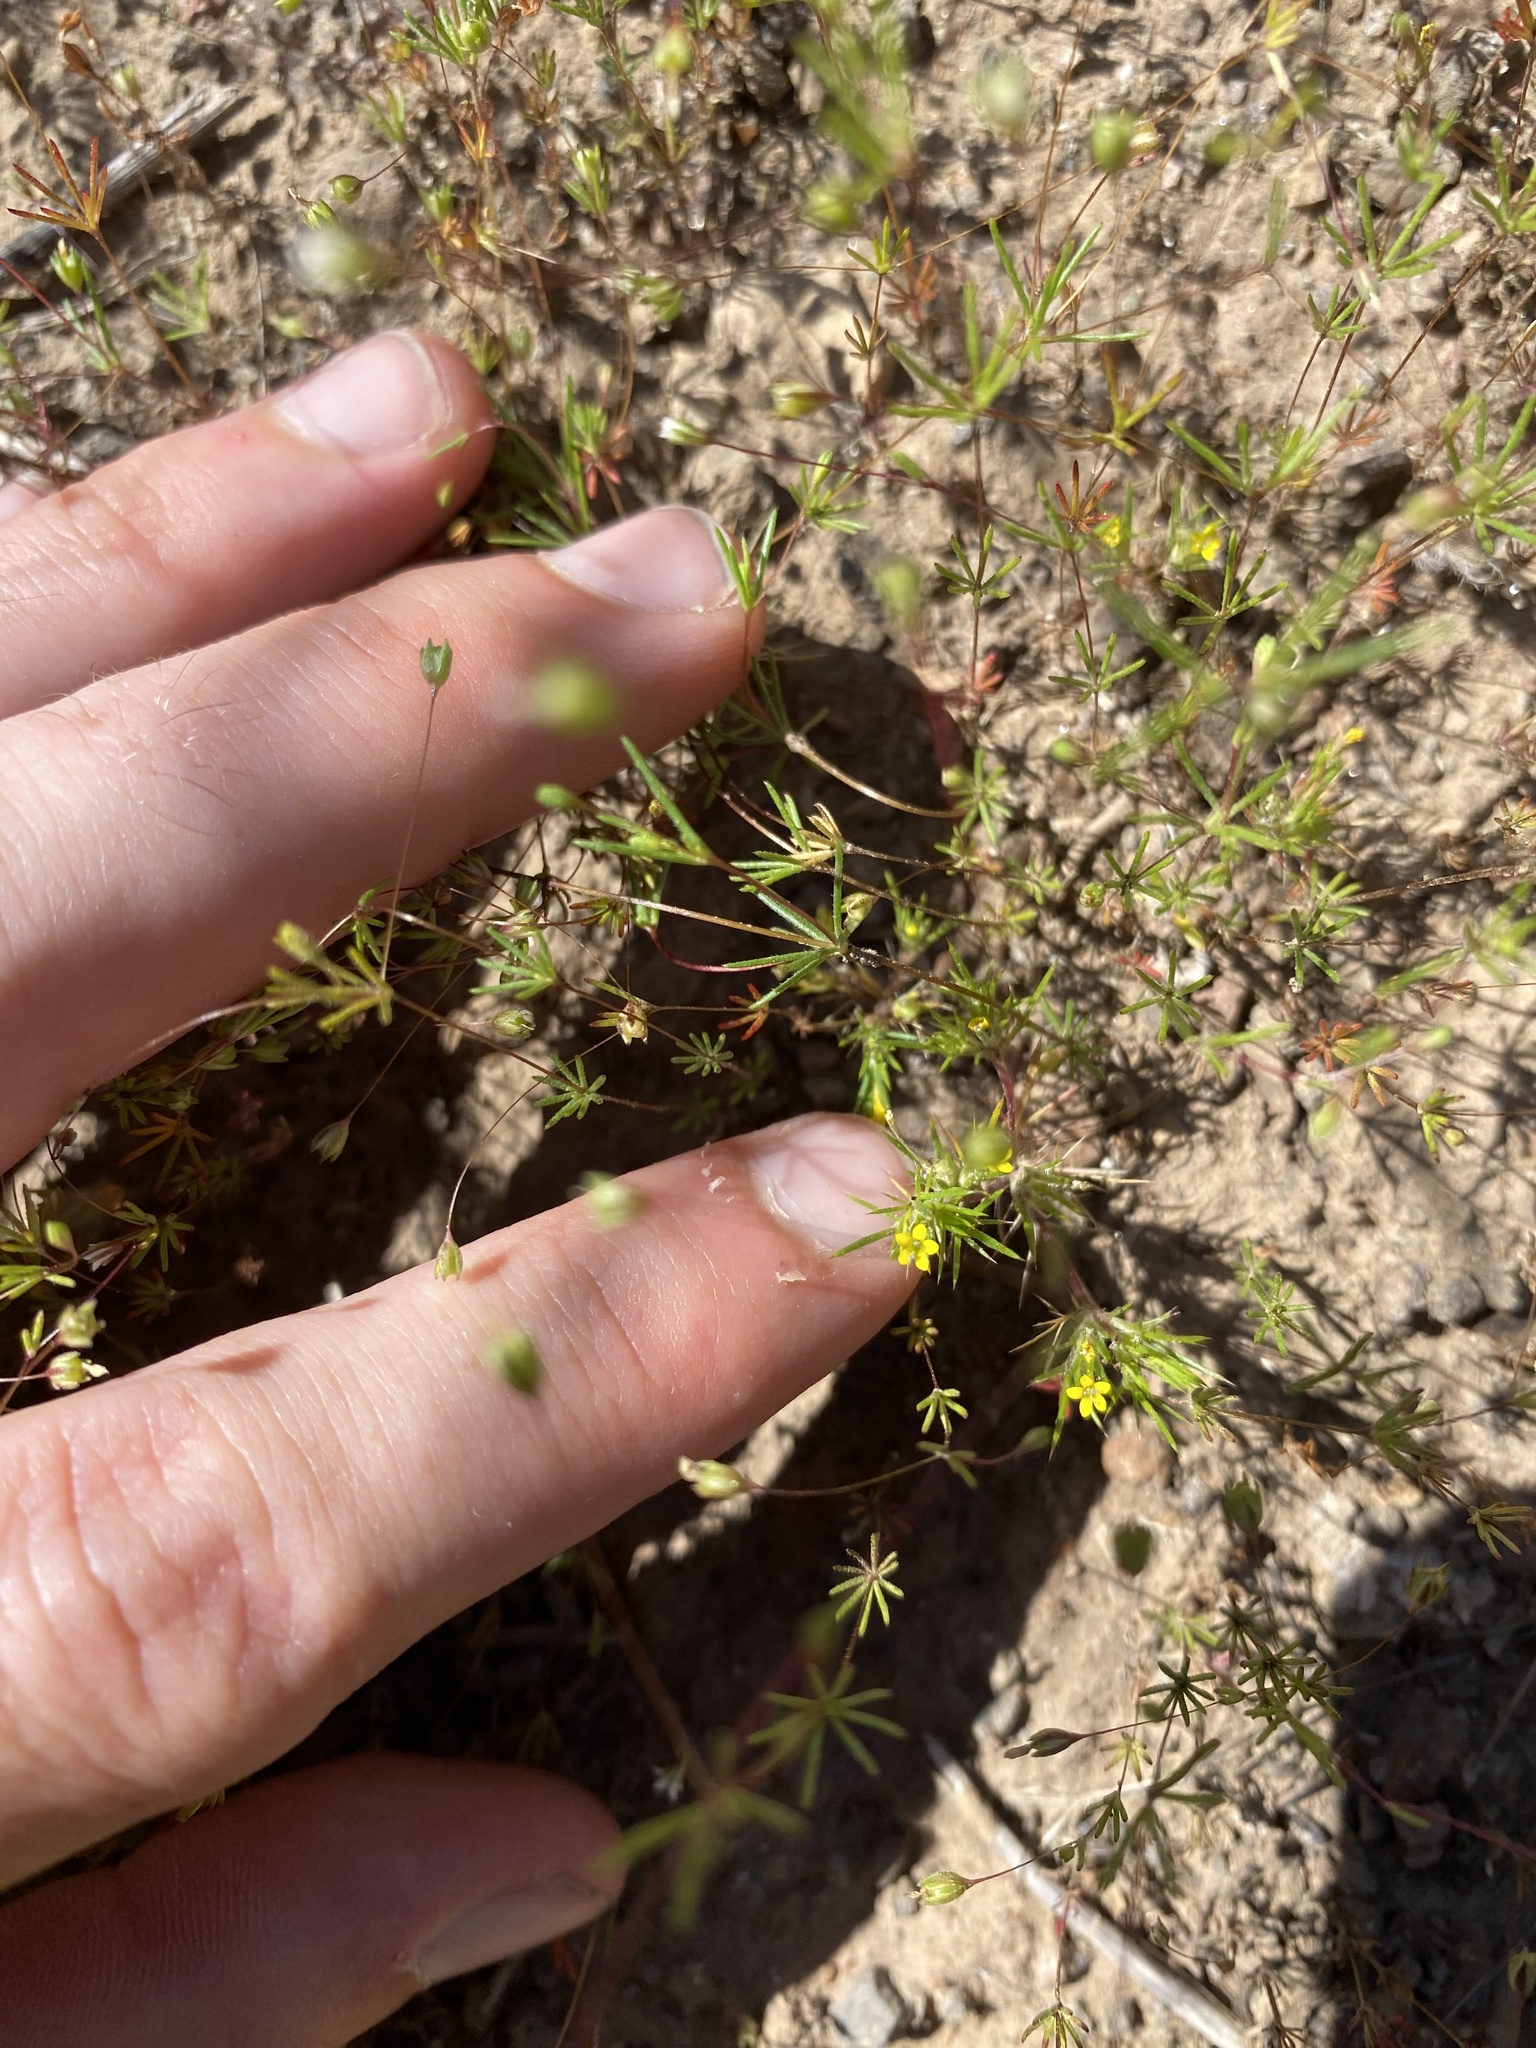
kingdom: Plantae
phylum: Tracheophyta
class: Magnoliopsida
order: Ericales
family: Polemoniaceae
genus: Navarretia
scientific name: Navarretia breweri
